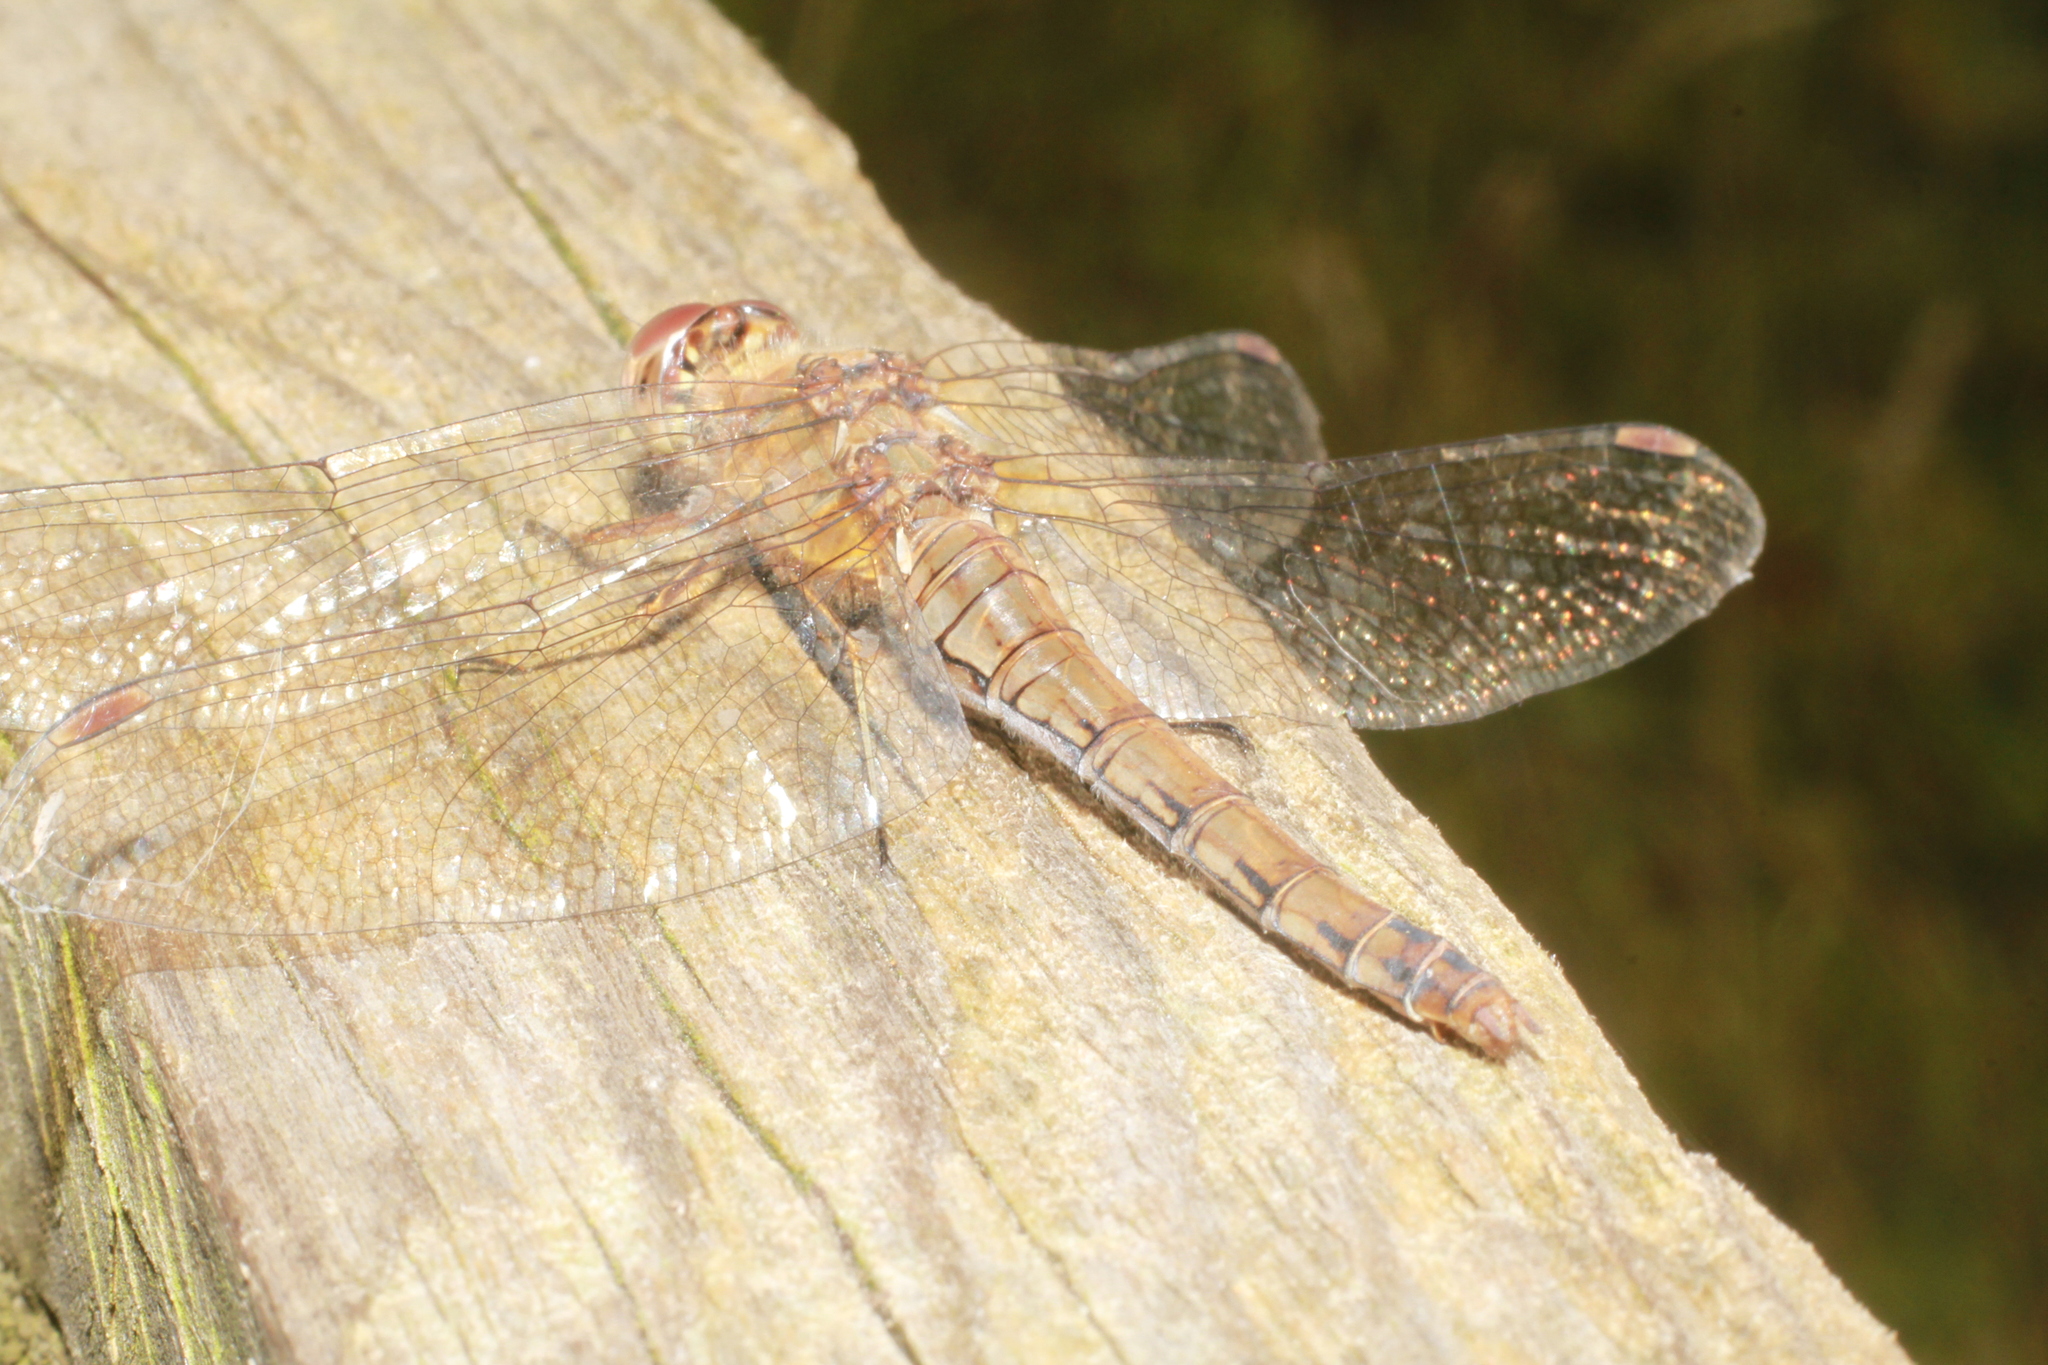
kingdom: Animalia
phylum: Arthropoda
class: Insecta
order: Odonata
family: Libellulidae
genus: Sympetrum
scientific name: Sympetrum striolatum
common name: Common darter
